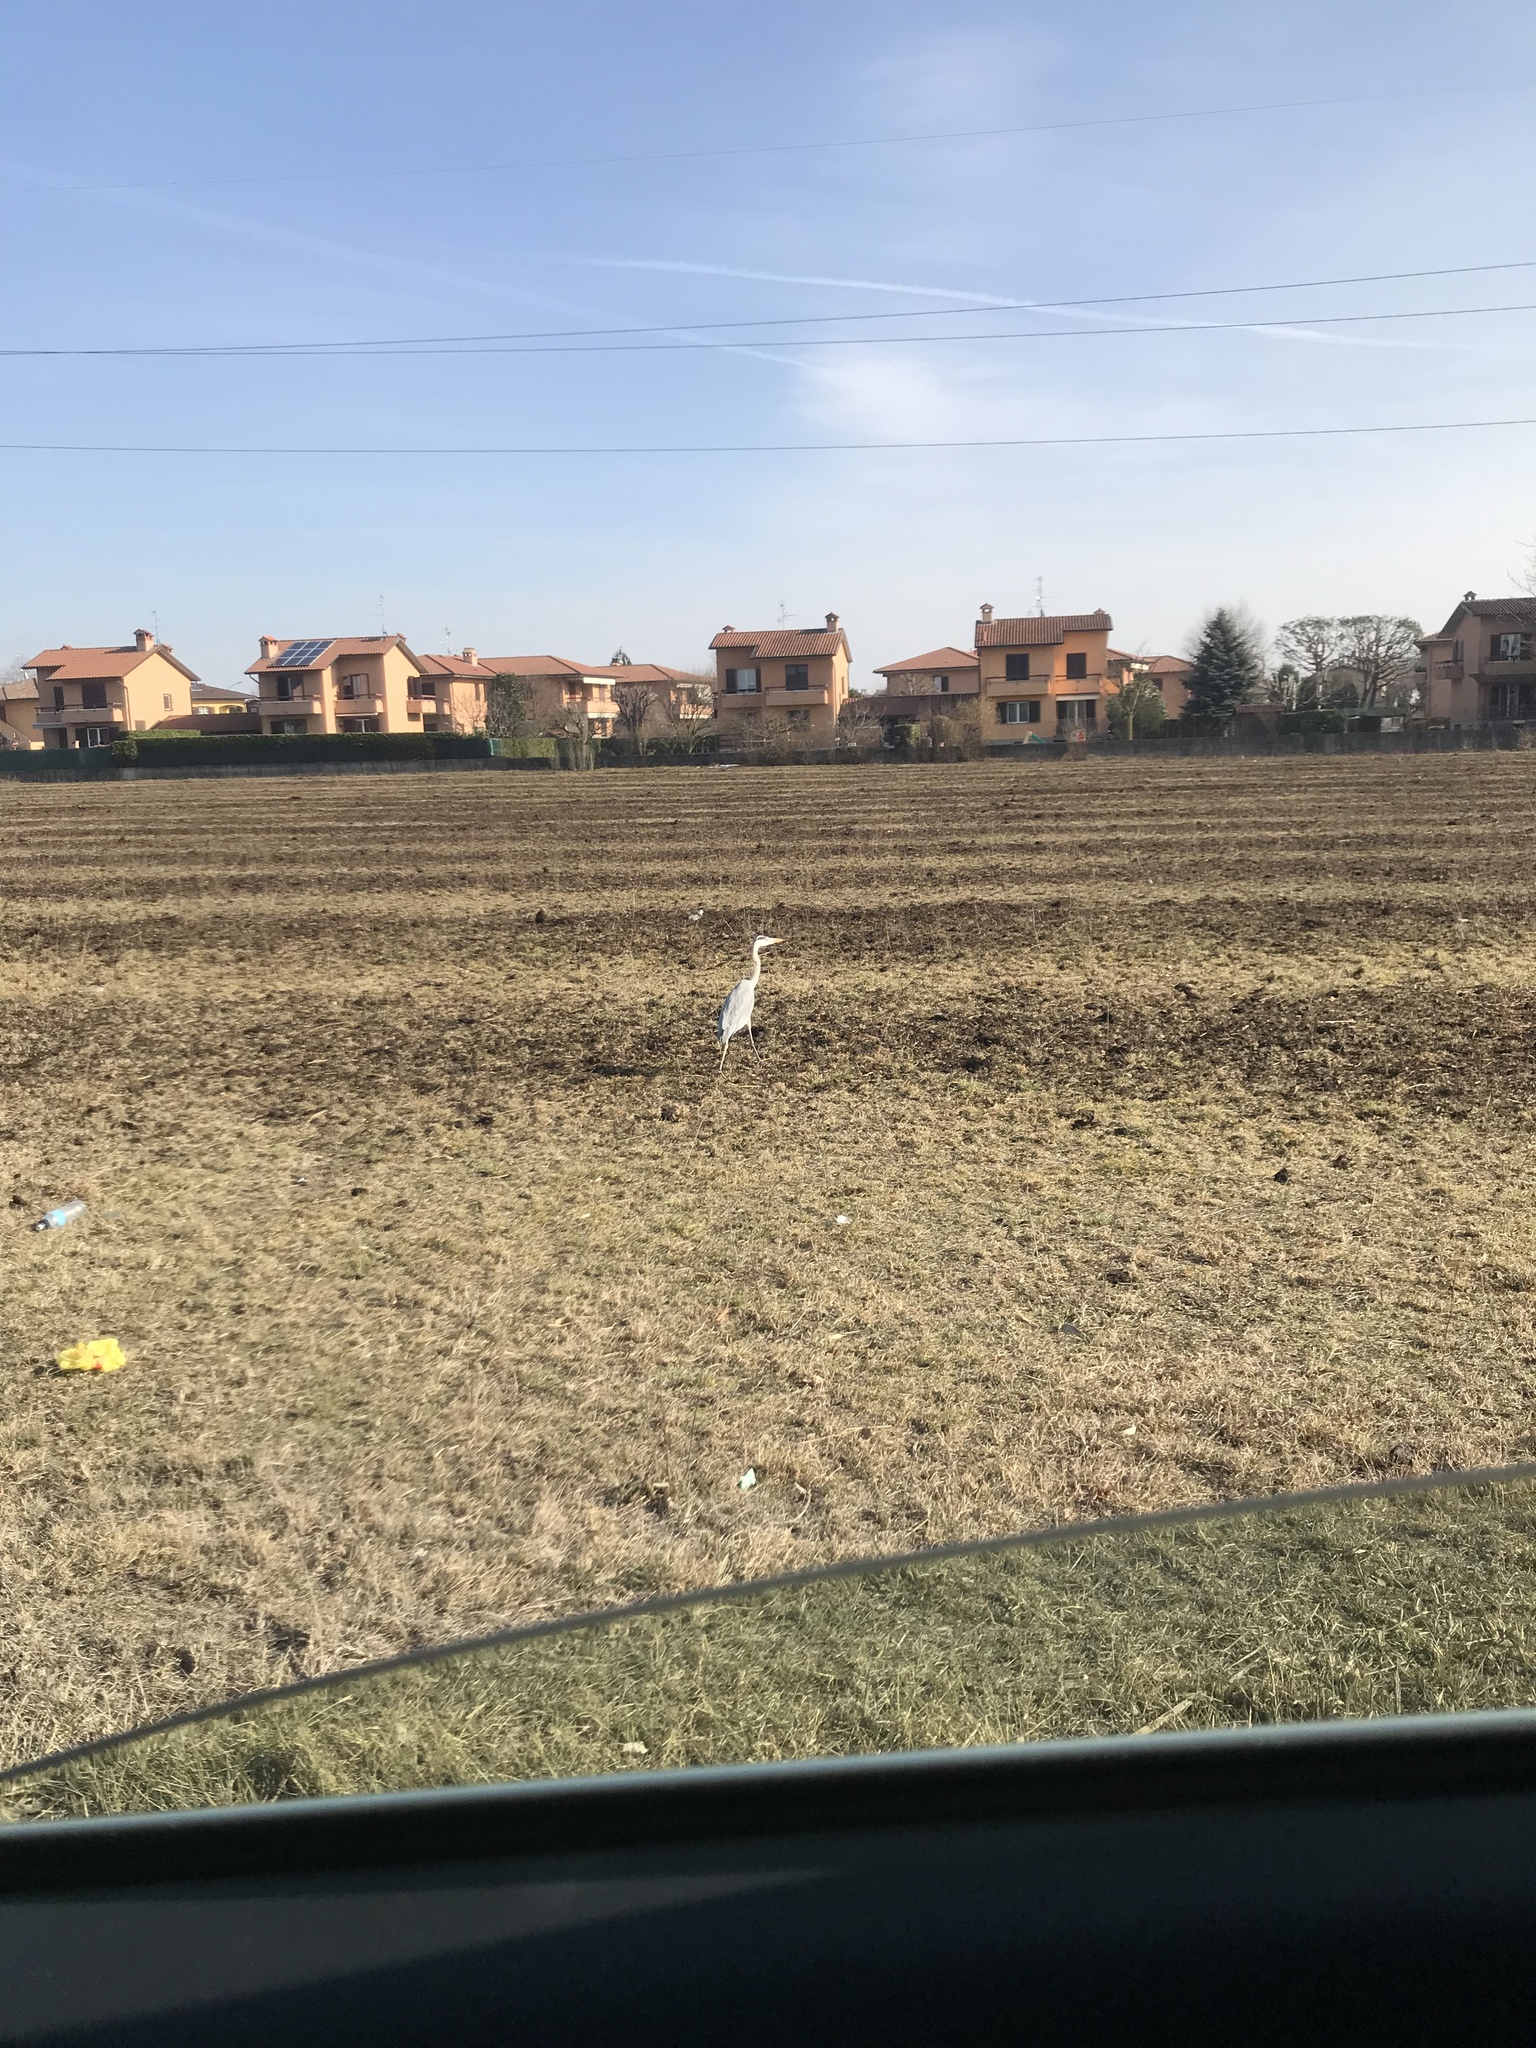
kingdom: Animalia
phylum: Chordata
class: Aves
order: Pelecaniformes
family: Ardeidae
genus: Ardea
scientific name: Ardea cinerea
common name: Grey heron
